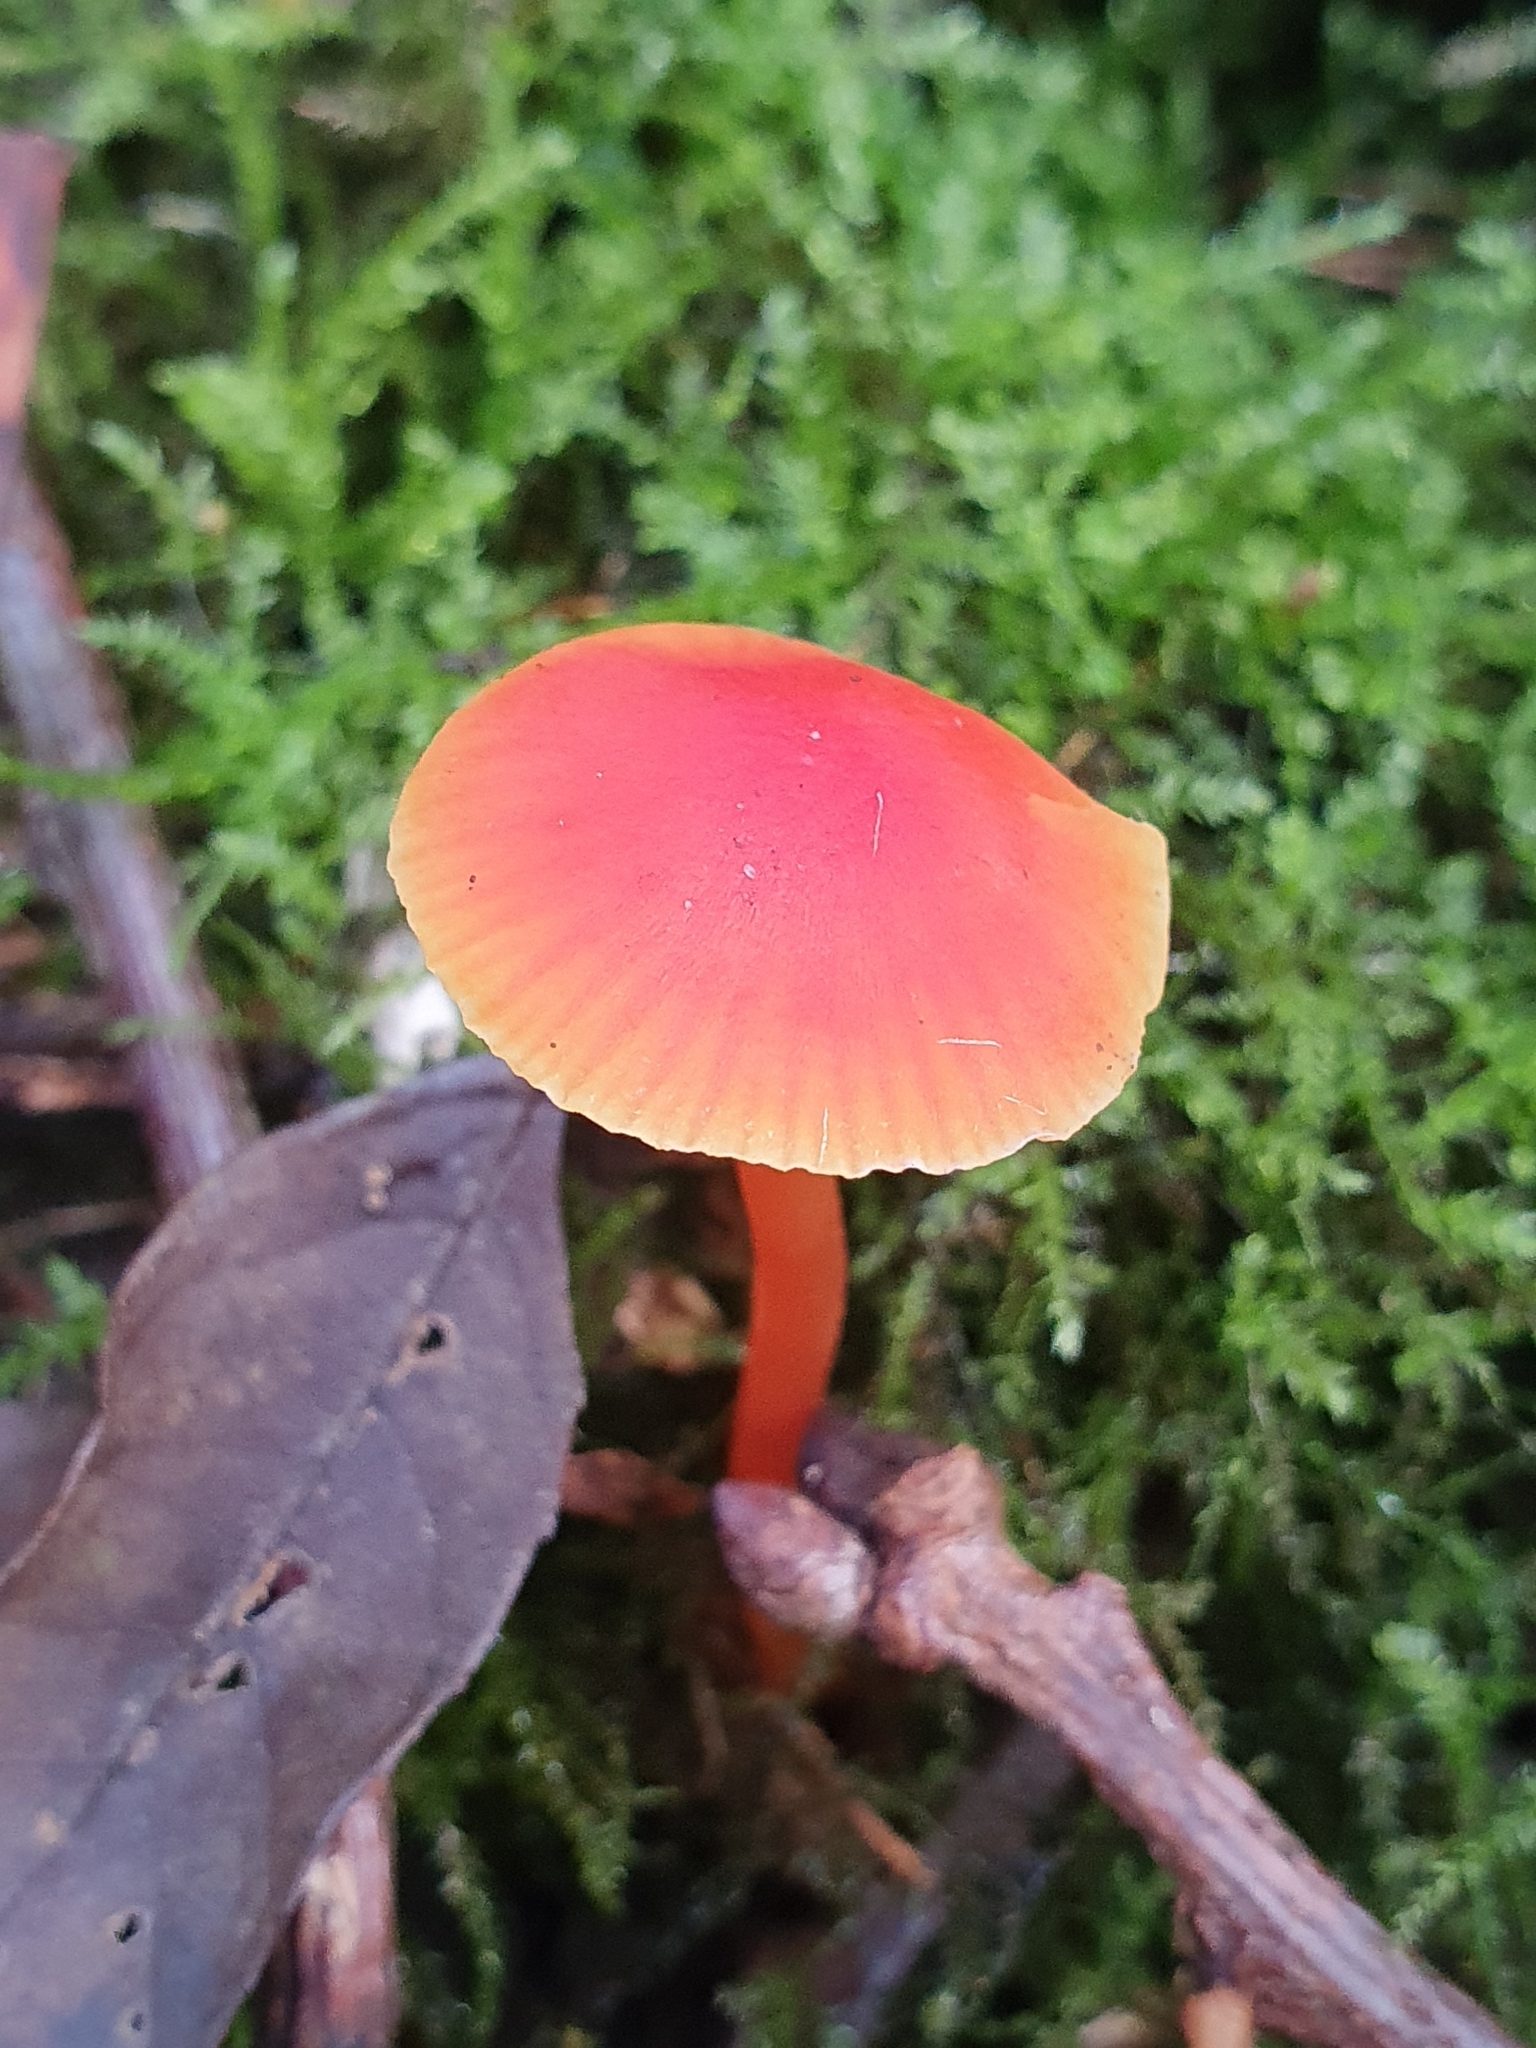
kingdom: Fungi
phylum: Basidiomycota
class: Agaricomycetes
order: Agaricales
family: Hygrophoraceae
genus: Hygrocybe
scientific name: Hygrocybe coccinea
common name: Scarlet hood
